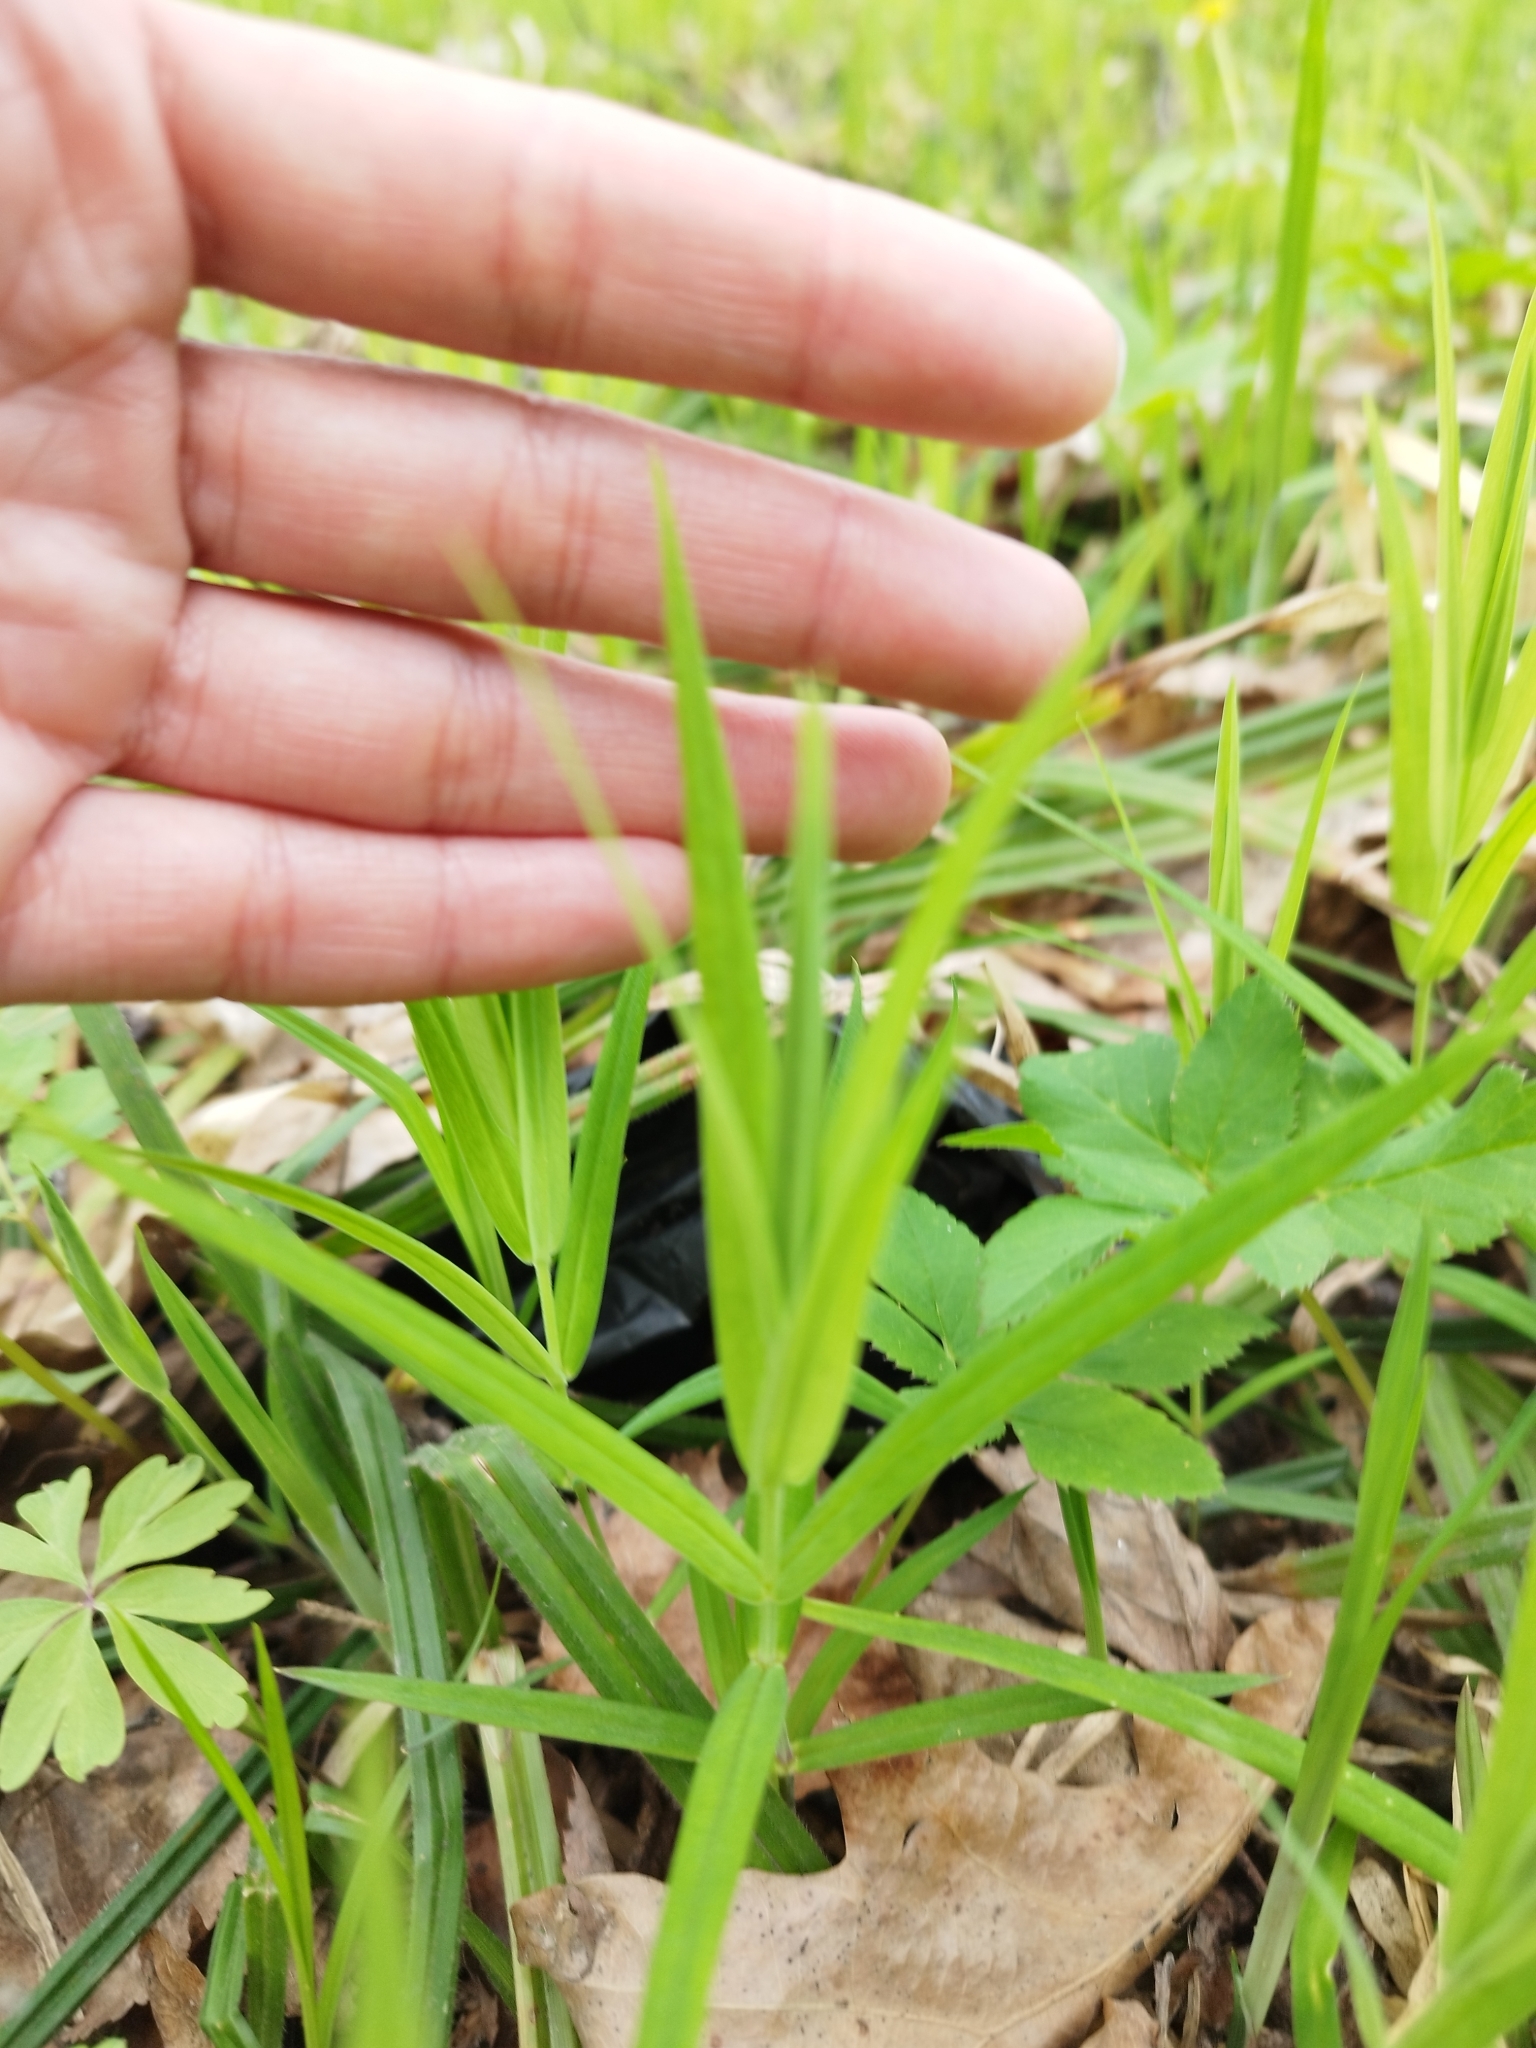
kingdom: Plantae
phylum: Tracheophyta
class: Magnoliopsida
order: Caryophyllales
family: Caryophyllaceae
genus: Rabelera
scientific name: Rabelera holostea
